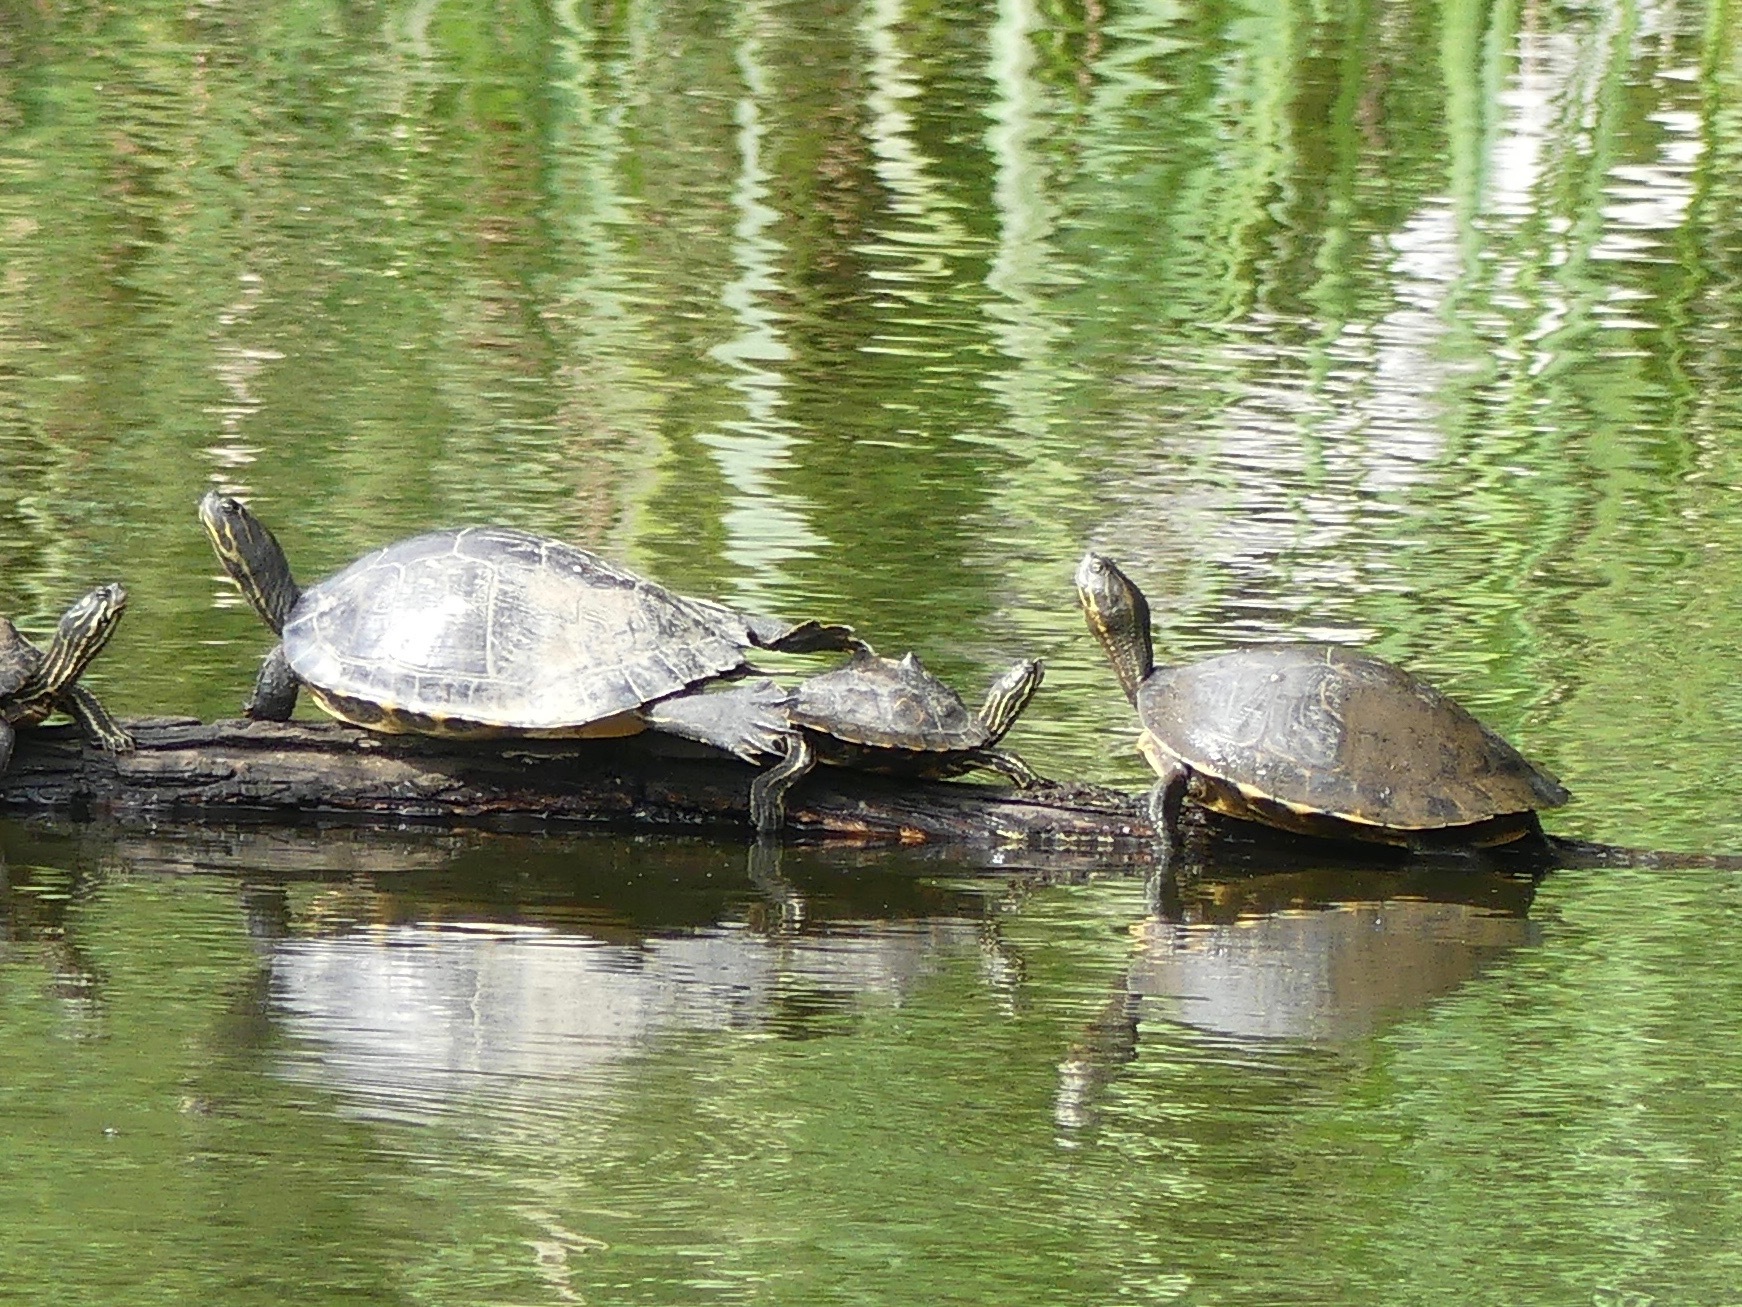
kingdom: Animalia
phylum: Chordata
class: Testudines
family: Emydidae
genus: Pseudemys
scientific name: Pseudemys concinna
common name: Eastern river cooter
